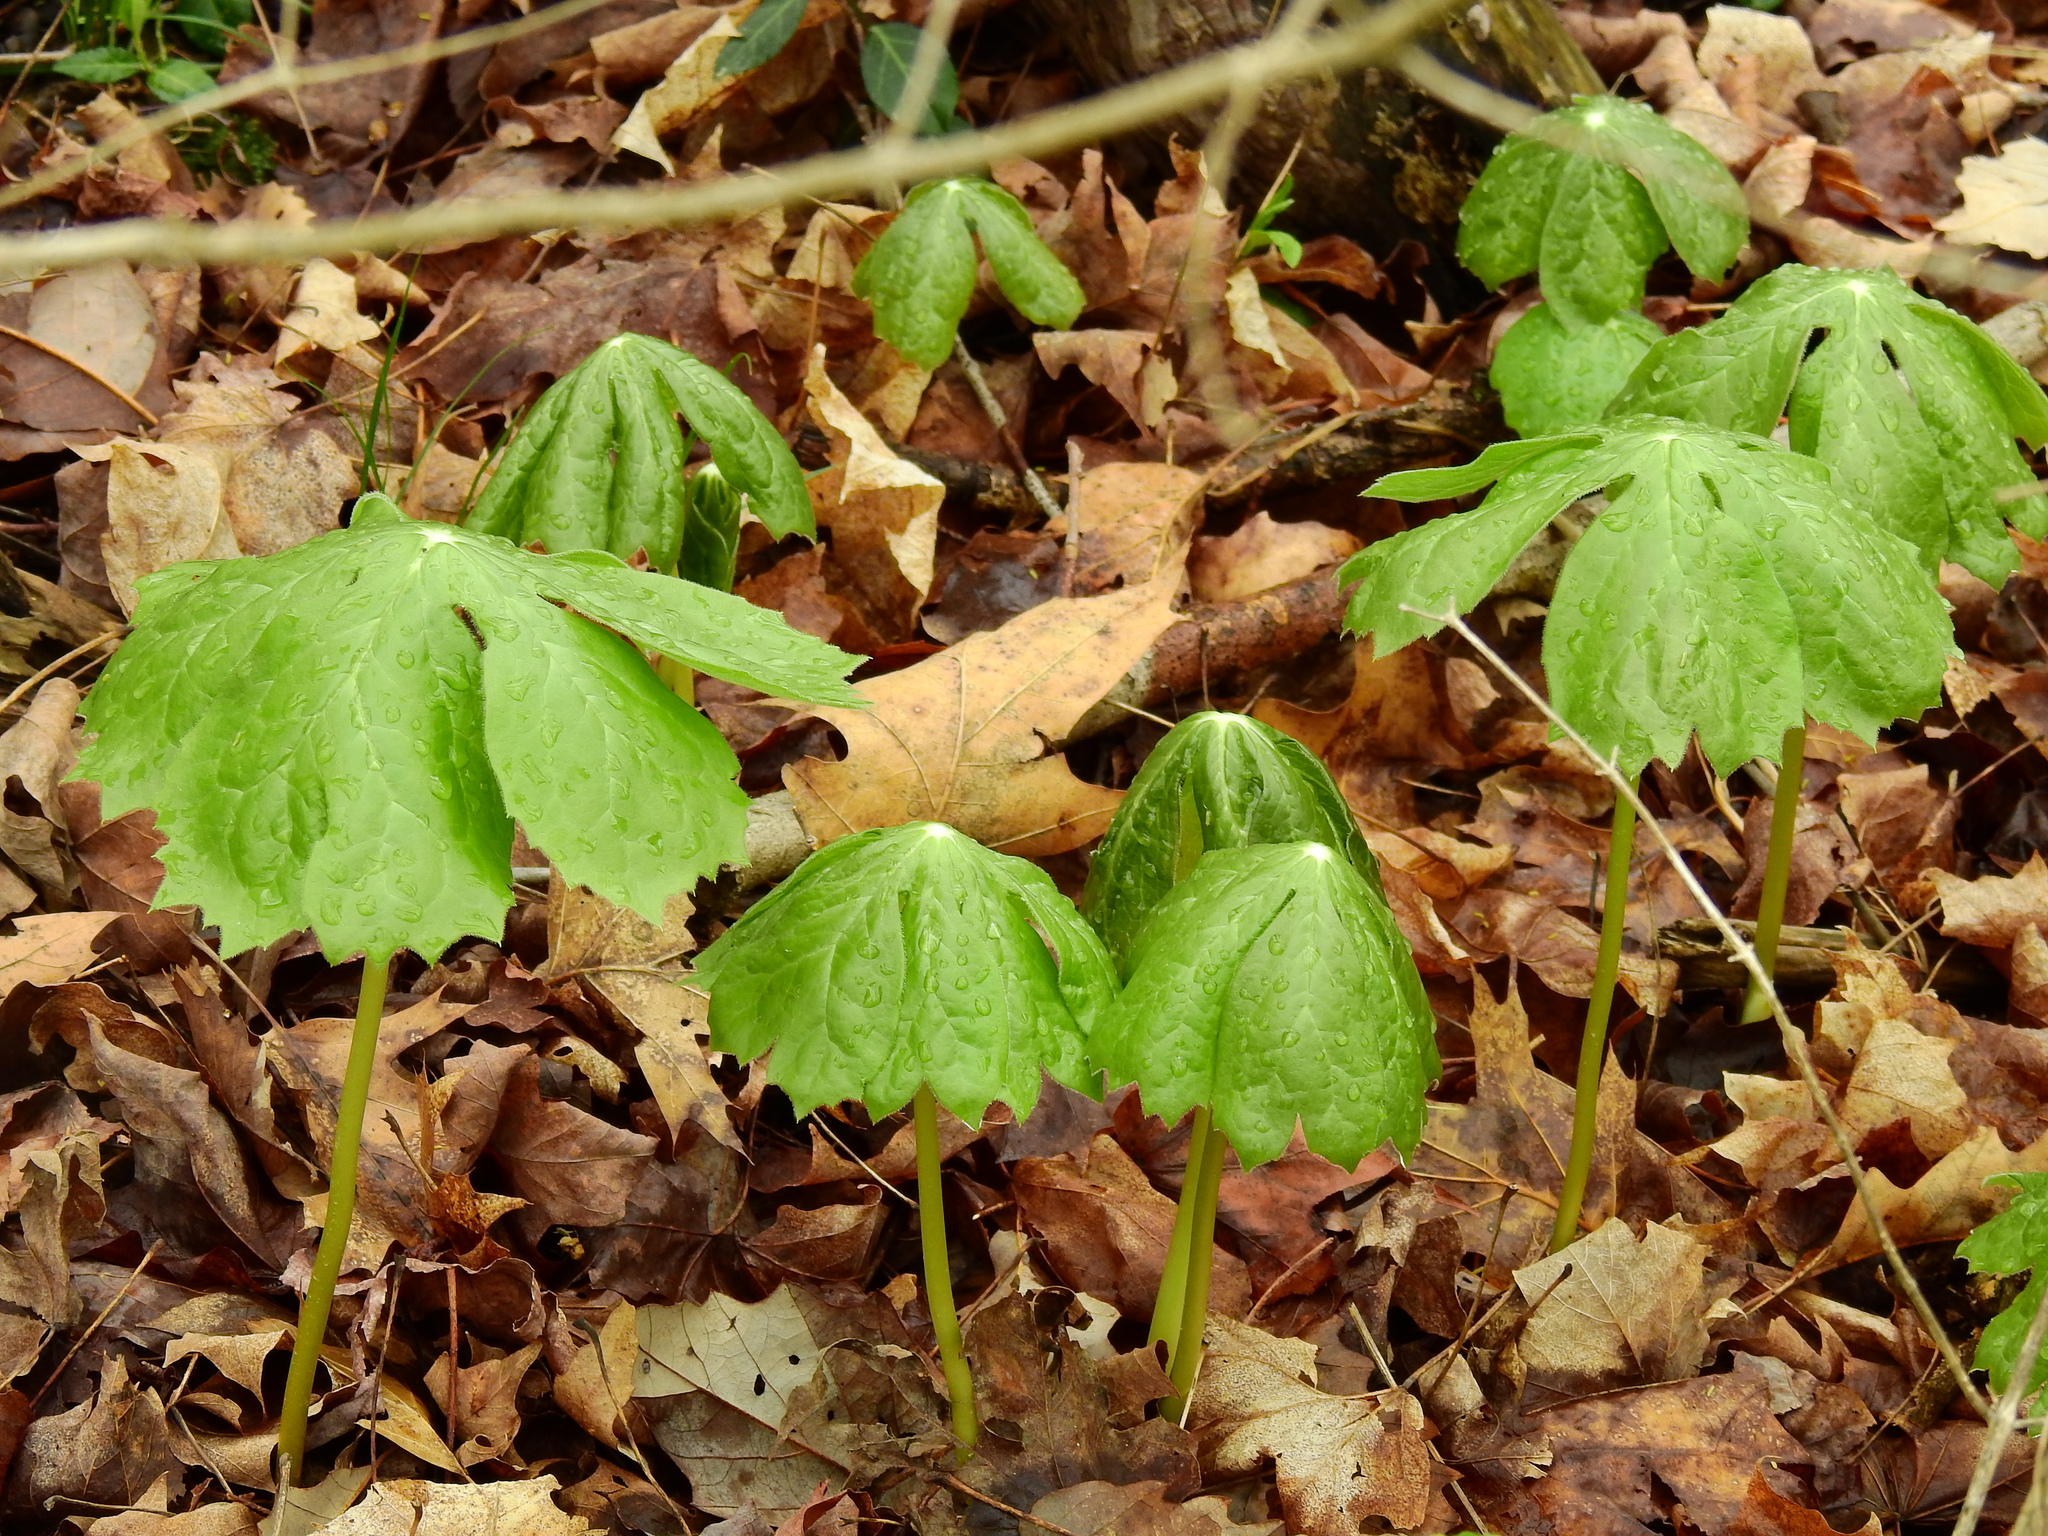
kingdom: Plantae
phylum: Tracheophyta
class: Magnoliopsida
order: Ranunculales
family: Berberidaceae
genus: Podophyllum
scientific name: Podophyllum peltatum
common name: Wild mandrake
